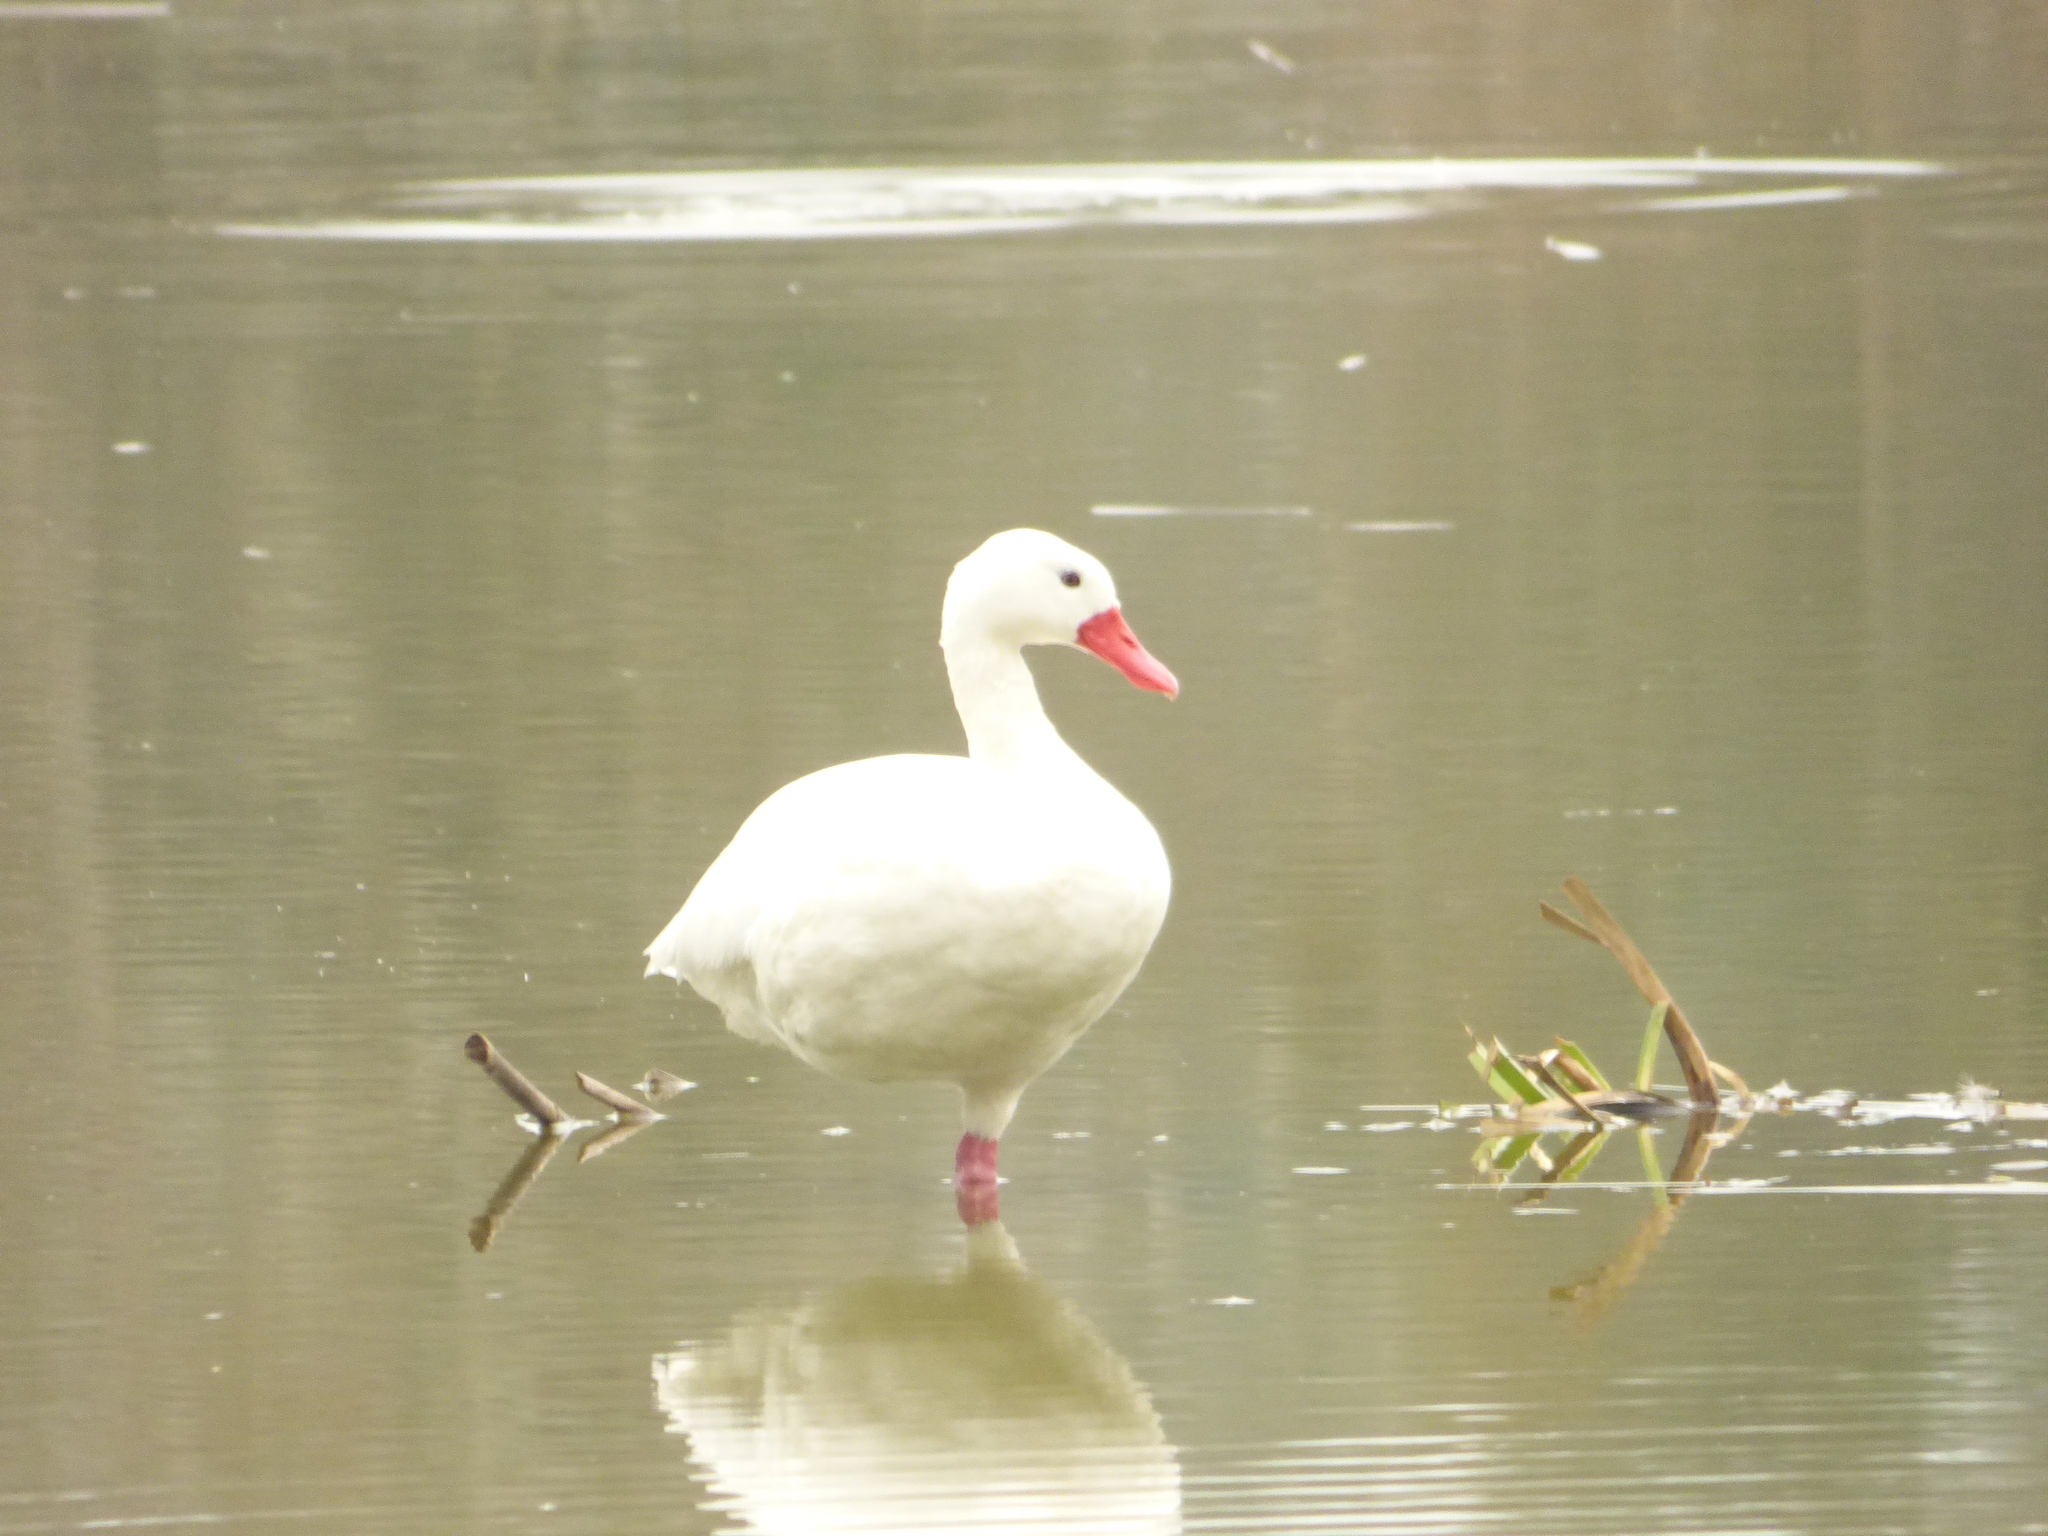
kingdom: Animalia
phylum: Chordata
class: Aves
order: Anseriformes
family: Anatidae
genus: Coscoroba
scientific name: Coscoroba coscoroba
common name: Coscoroba swan
